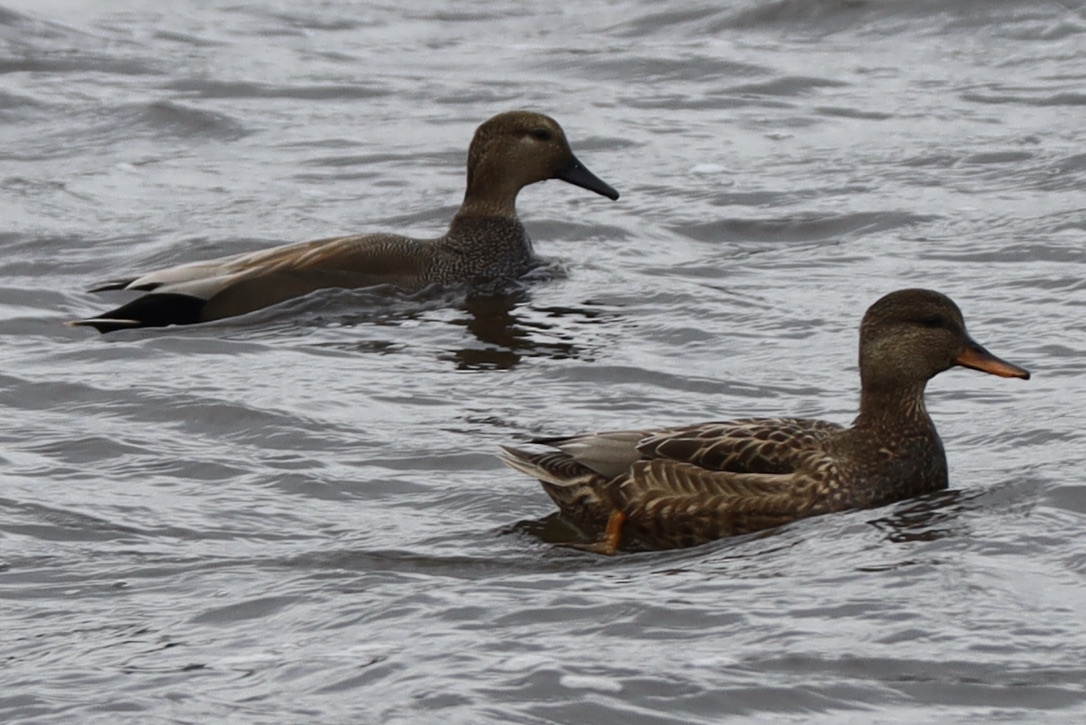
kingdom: Animalia
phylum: Chordata
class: Aves
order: Anseriformes
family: Anatidae
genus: Mareca
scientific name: Mareca strepera
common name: Gadwall
